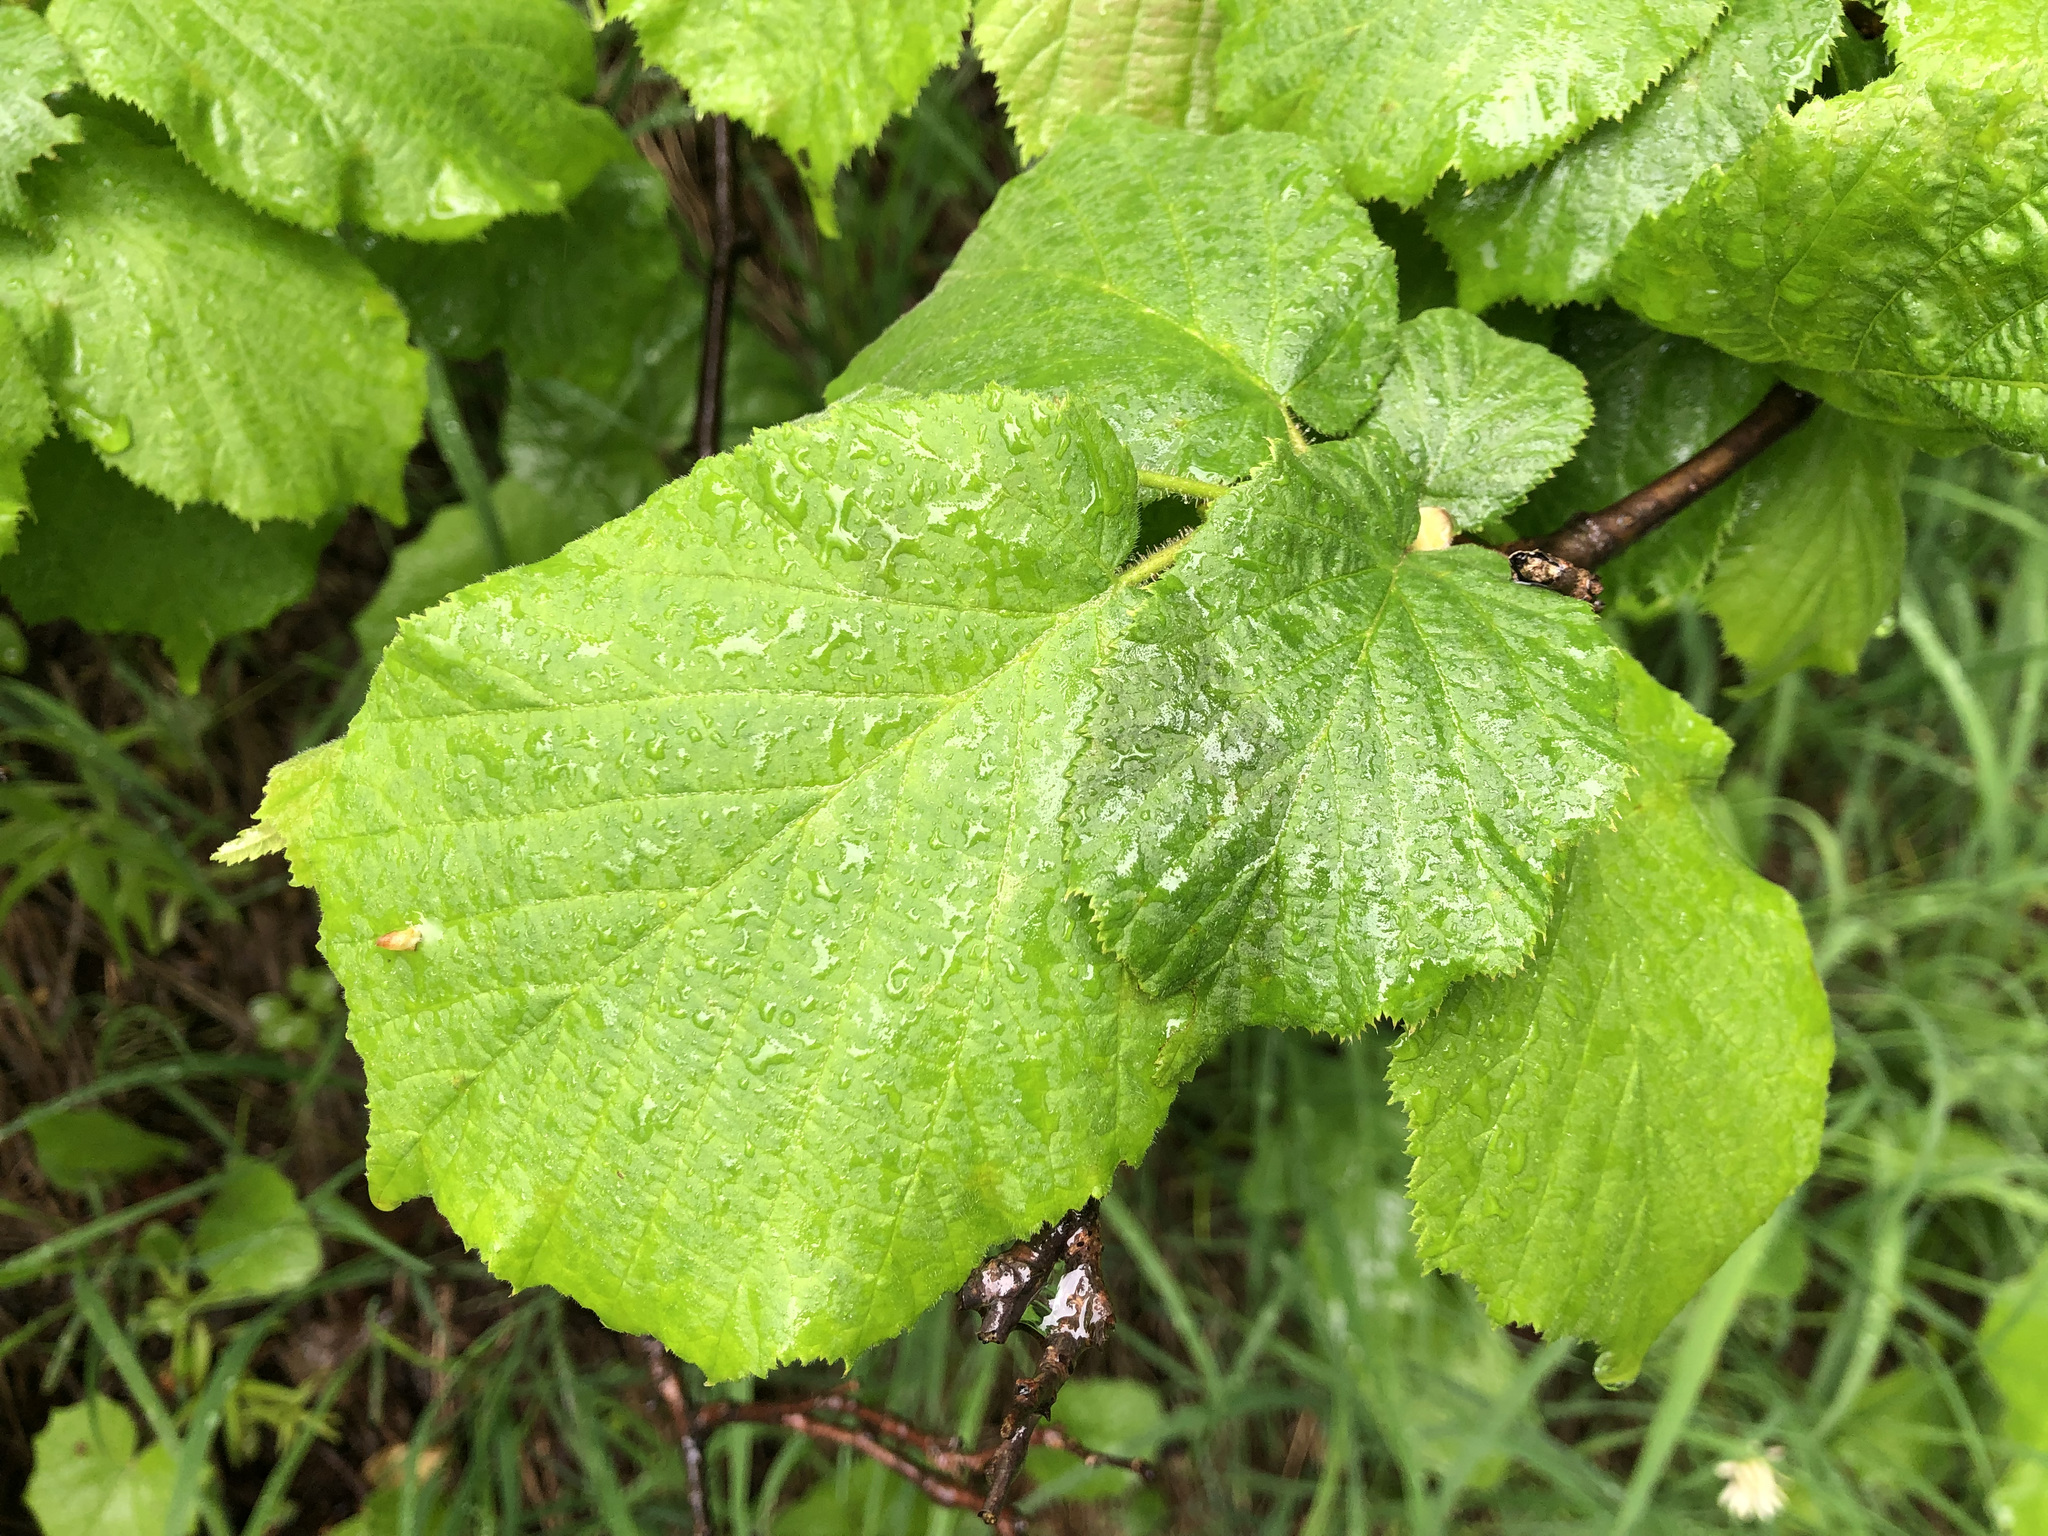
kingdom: Plantae
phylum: Tracheophyta
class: Magnoliopsida
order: Fagales
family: Betulaceae
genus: Corylus
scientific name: Corylus avellana
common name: European hazel
